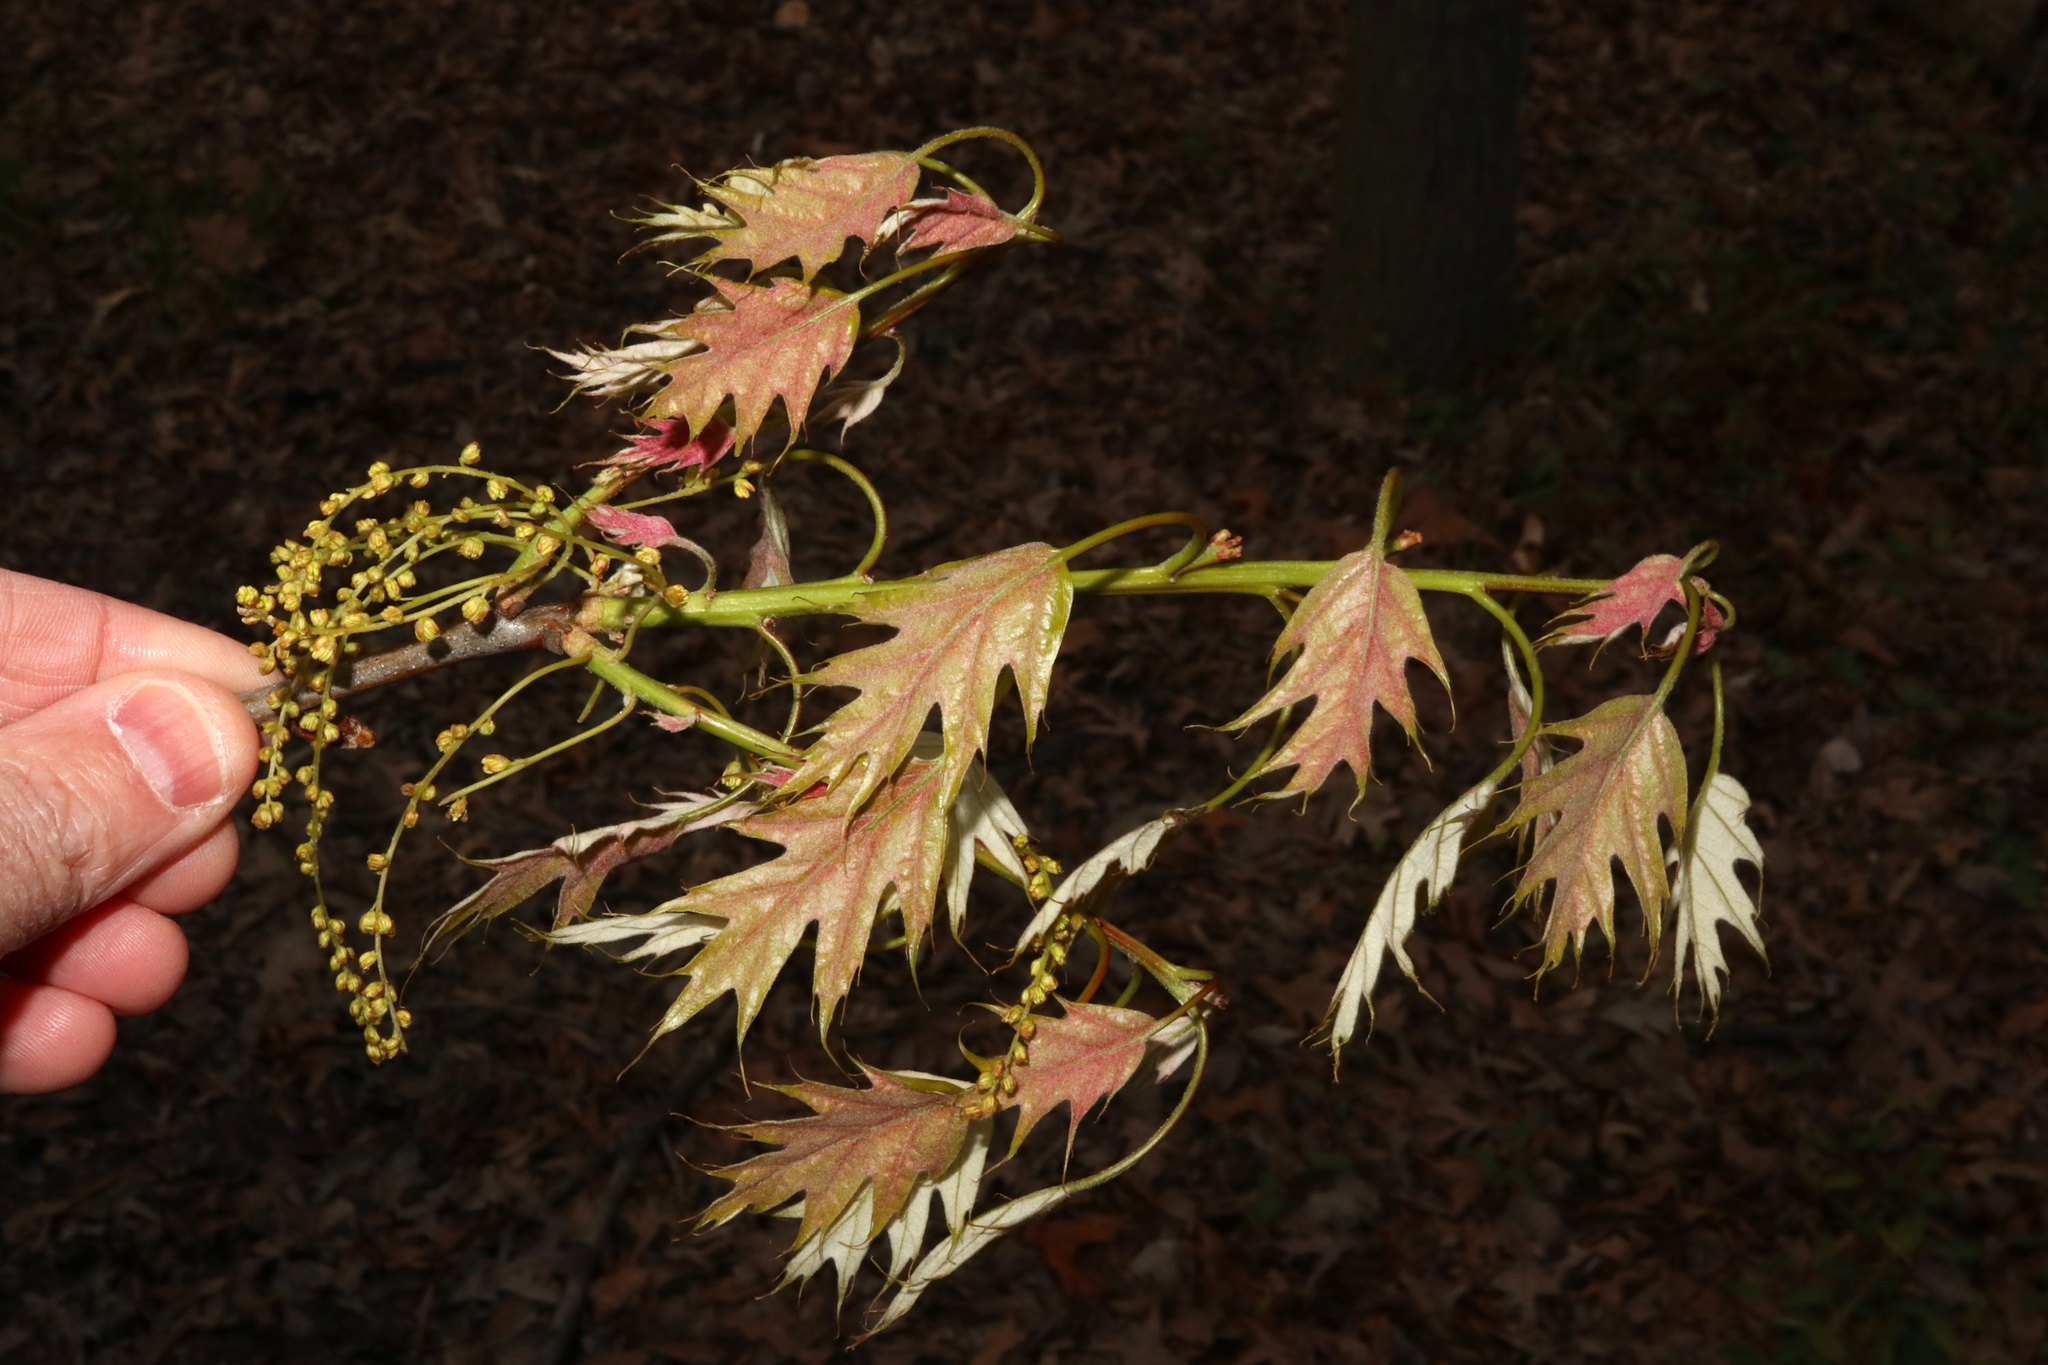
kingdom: Plantae
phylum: Tracheophyta
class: Magnoliopsida
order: Fagales
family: Fagaceae
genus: Quercus
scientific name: Quercus rubra
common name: Red oak
